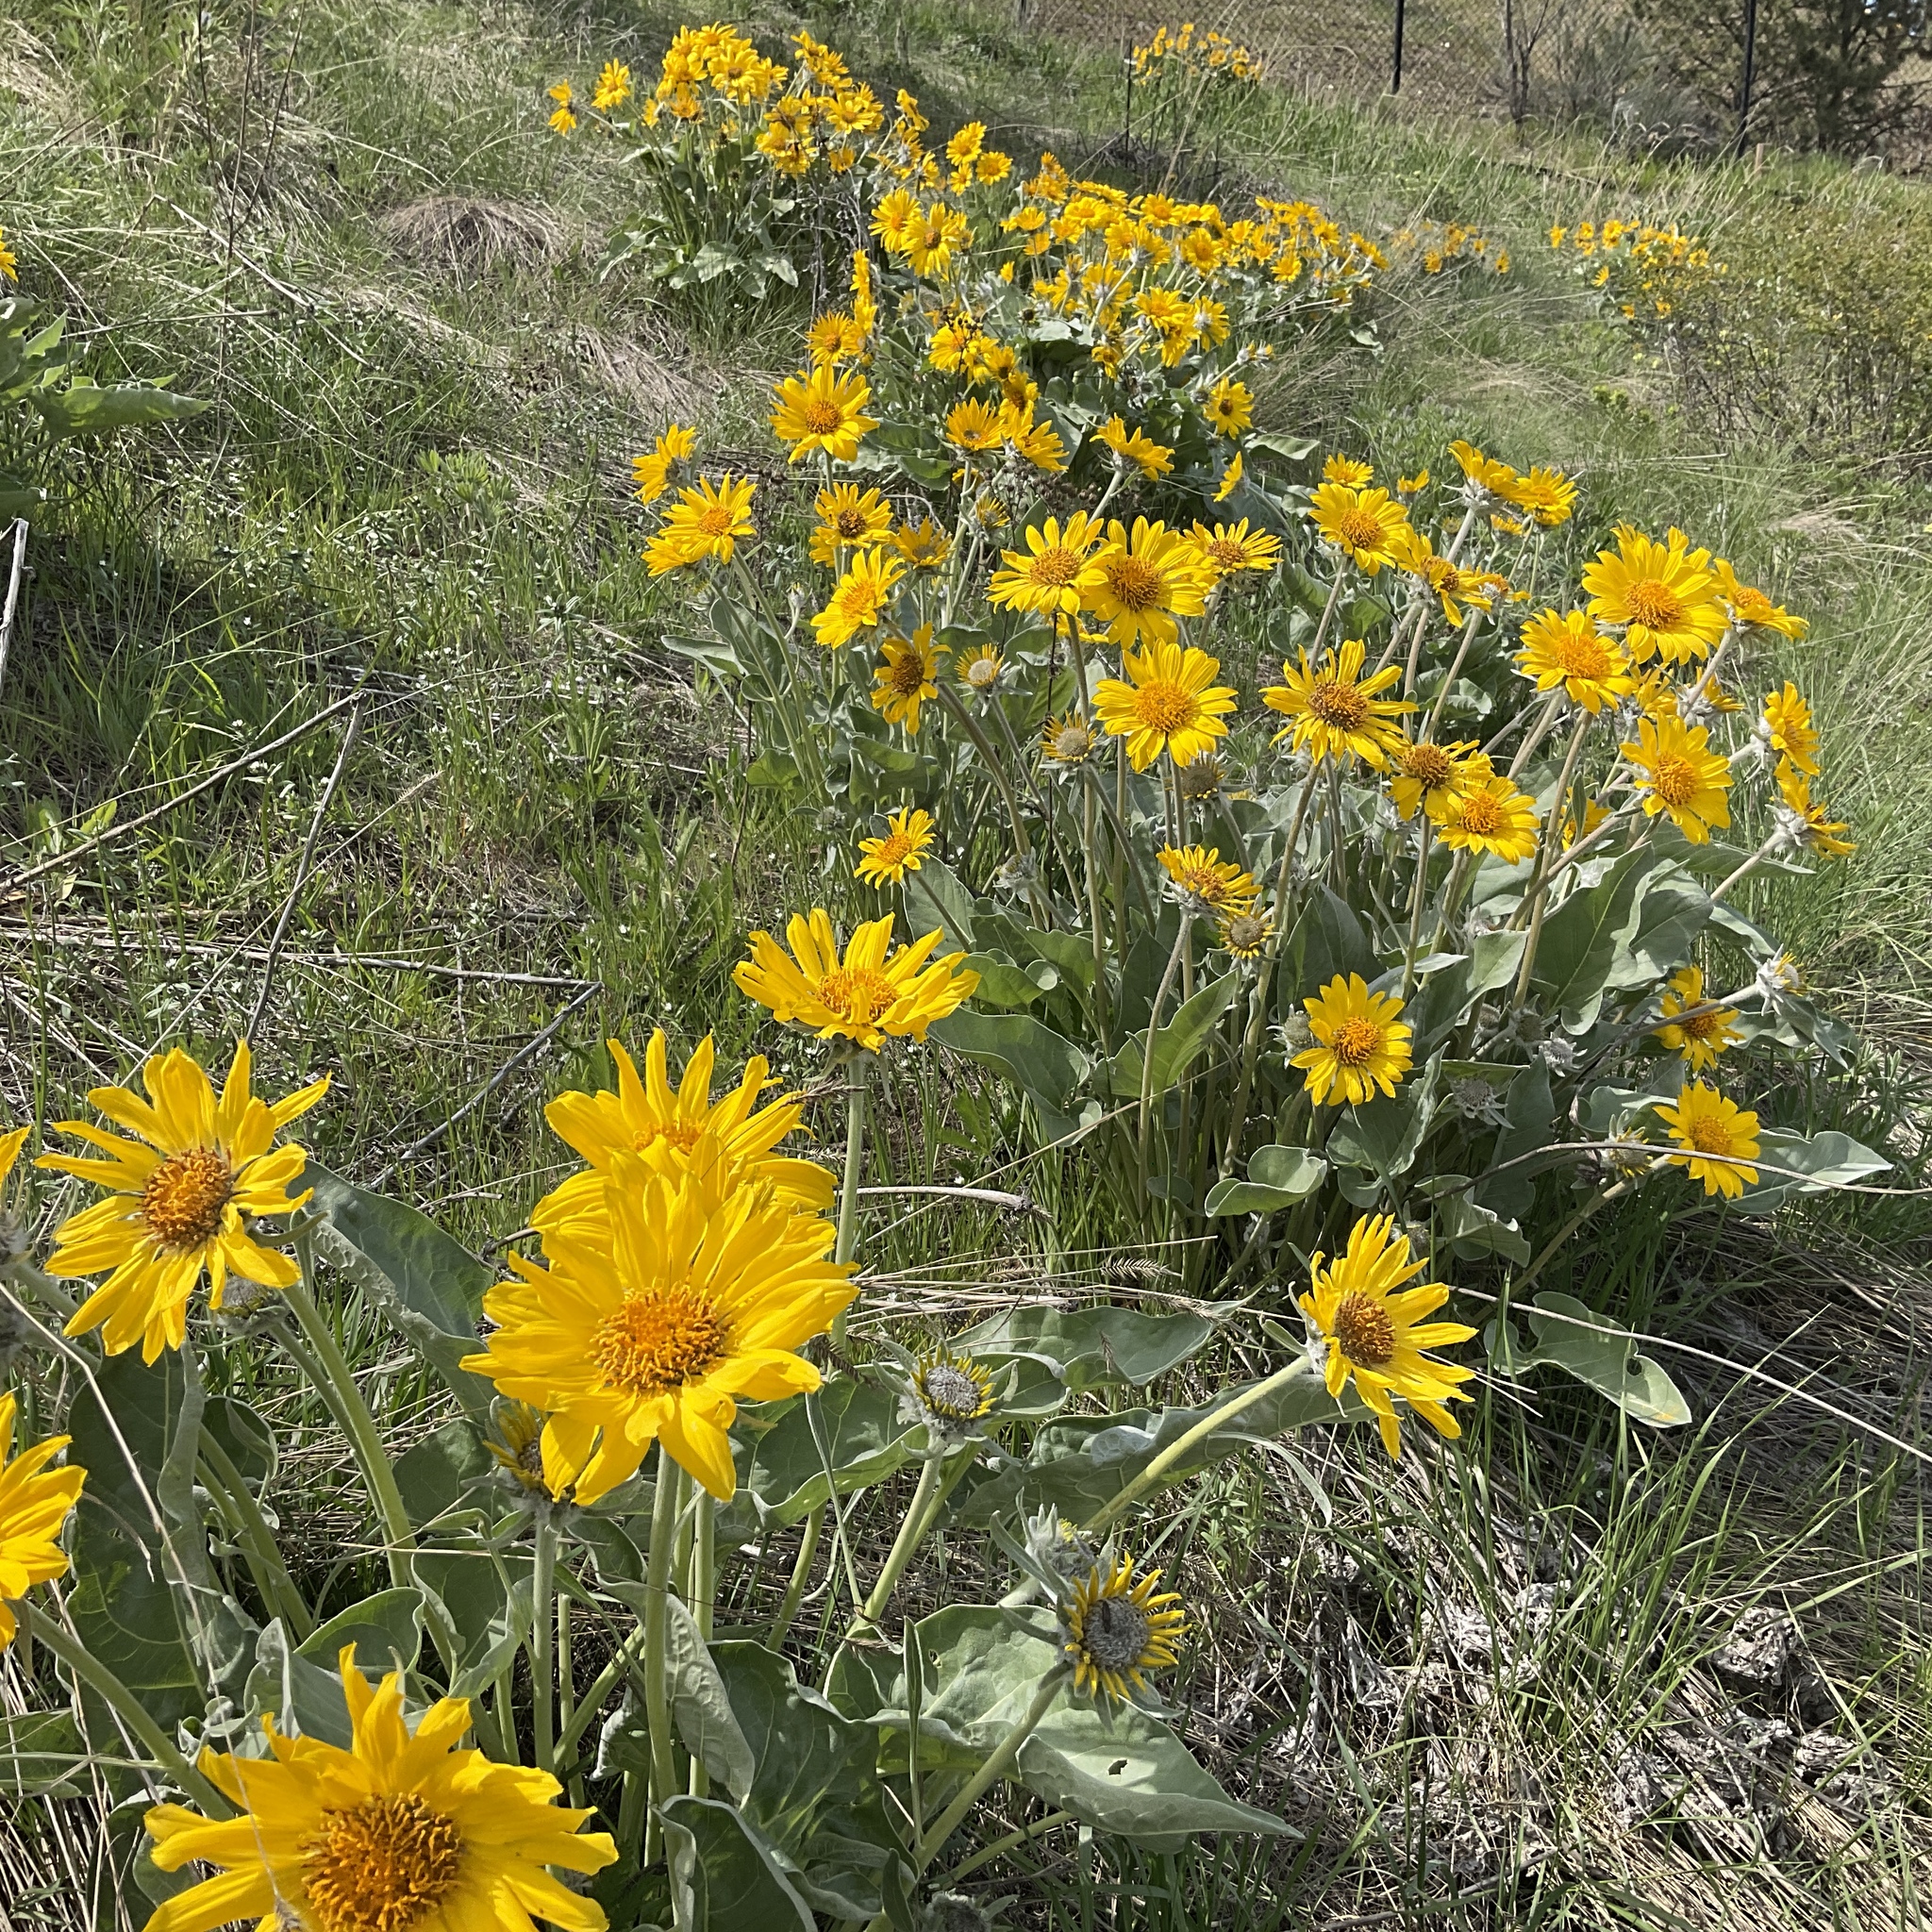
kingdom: Plantae
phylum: Tracheophyta
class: Magnoliopsida
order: Asterales
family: Asteraceae
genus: Wyethia
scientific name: Wyethia sagittata
